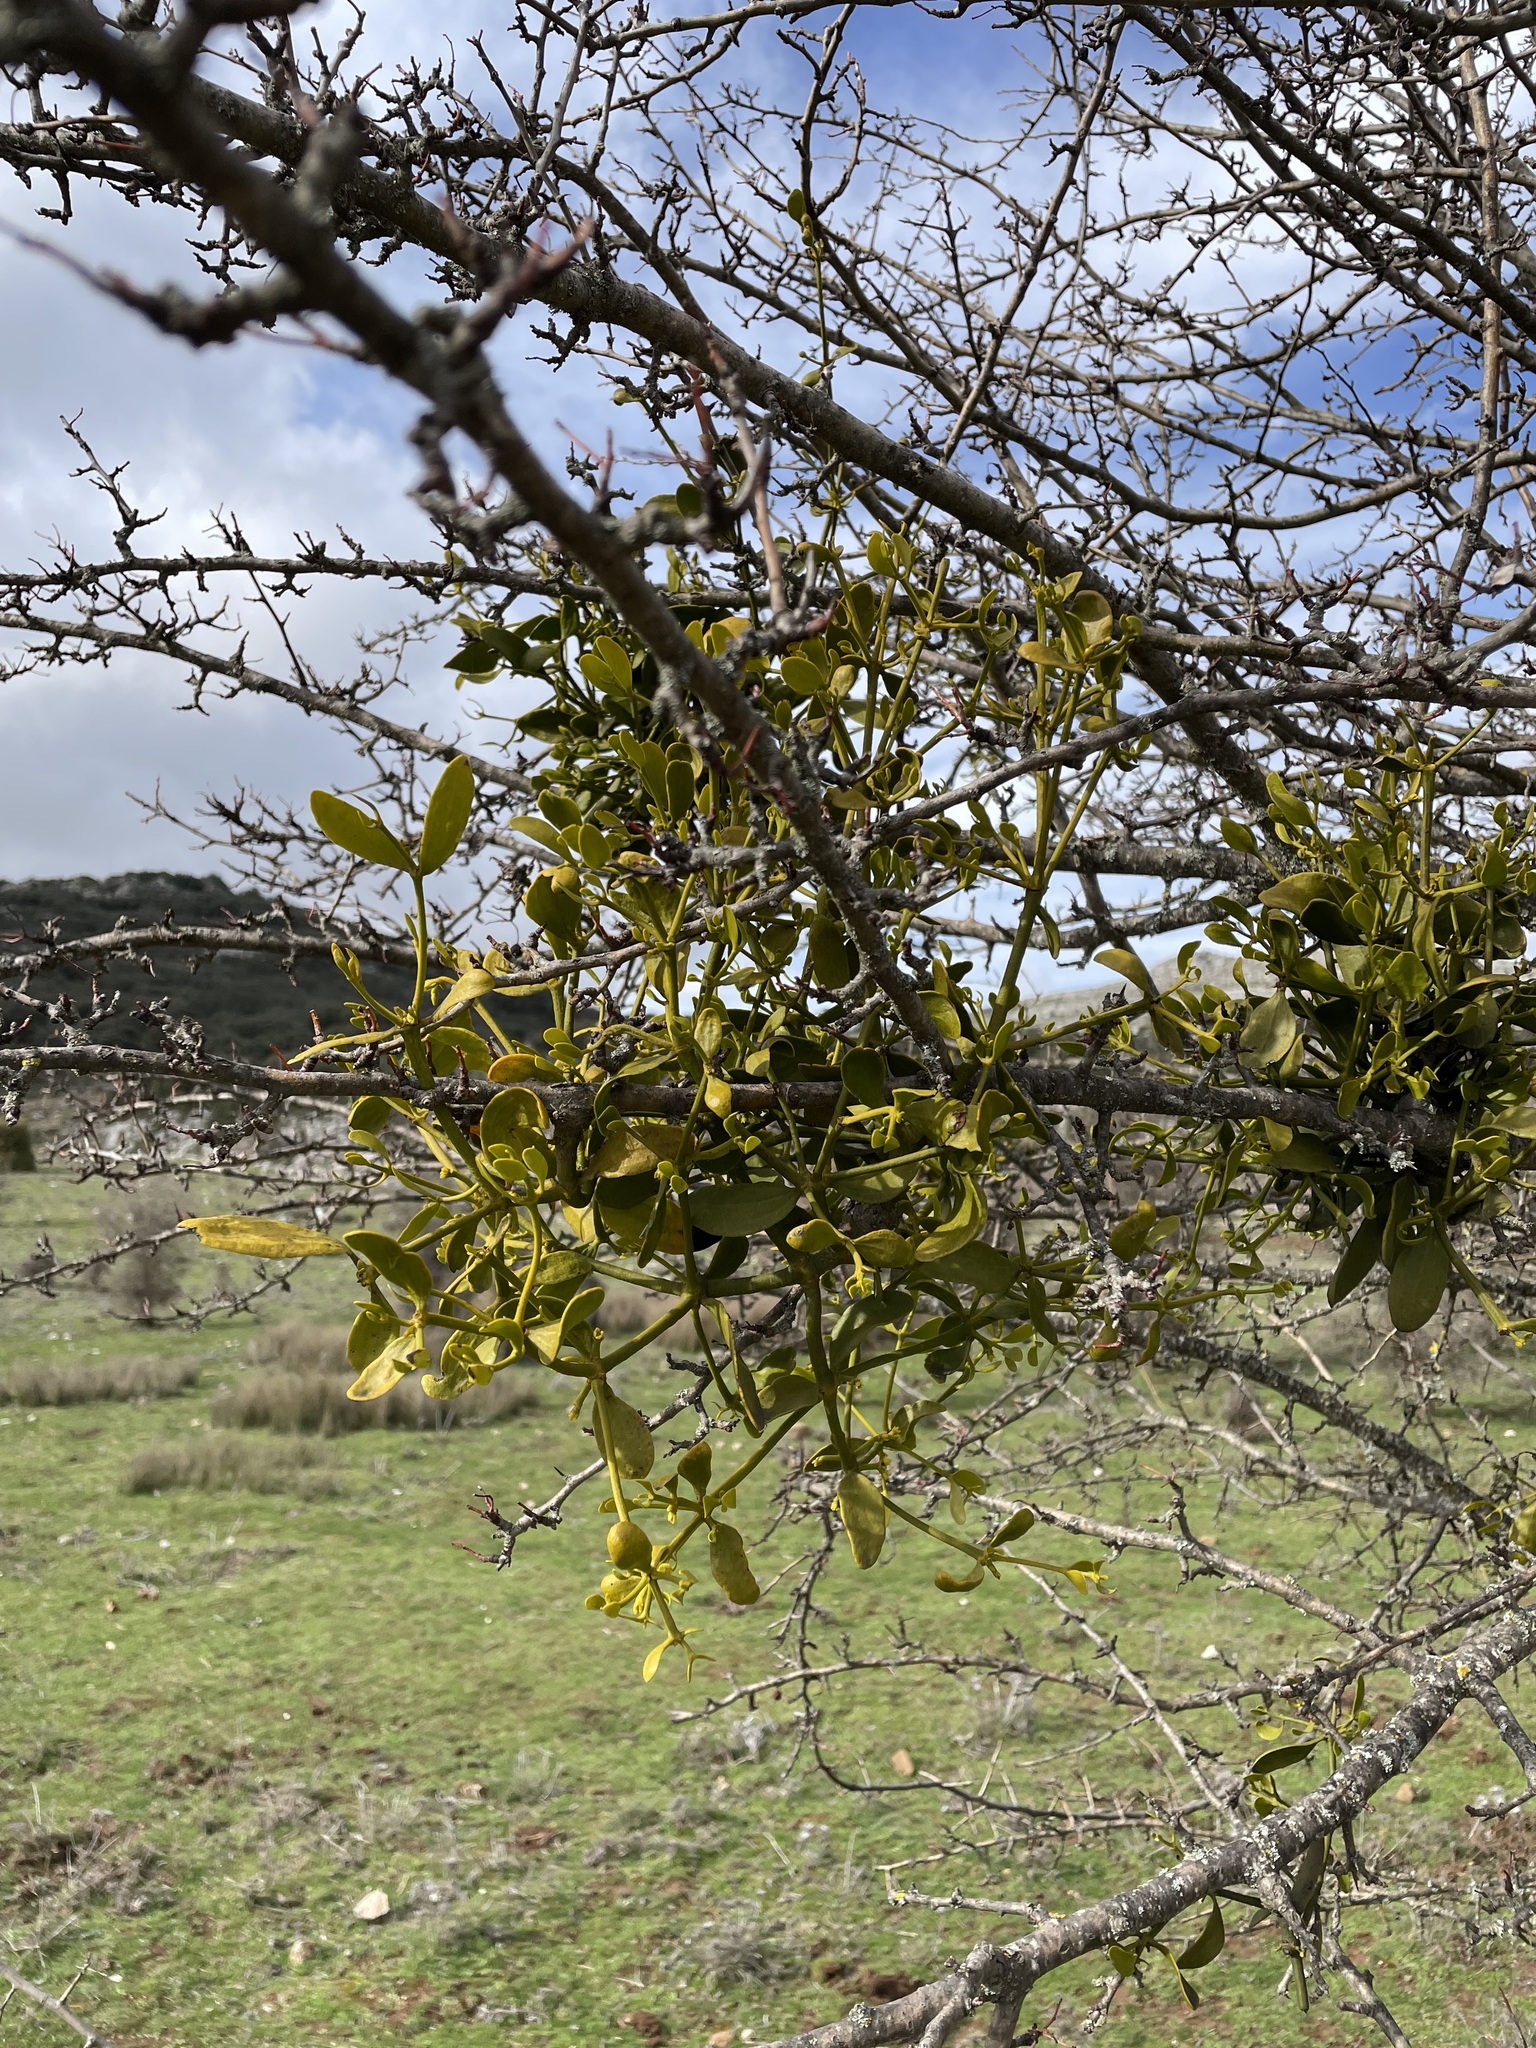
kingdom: Plantae
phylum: Tracheophyta
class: Magnoliopsida
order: Santalales
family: Viscaceae
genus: Viscum
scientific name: Viscum album
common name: Mistletoe
